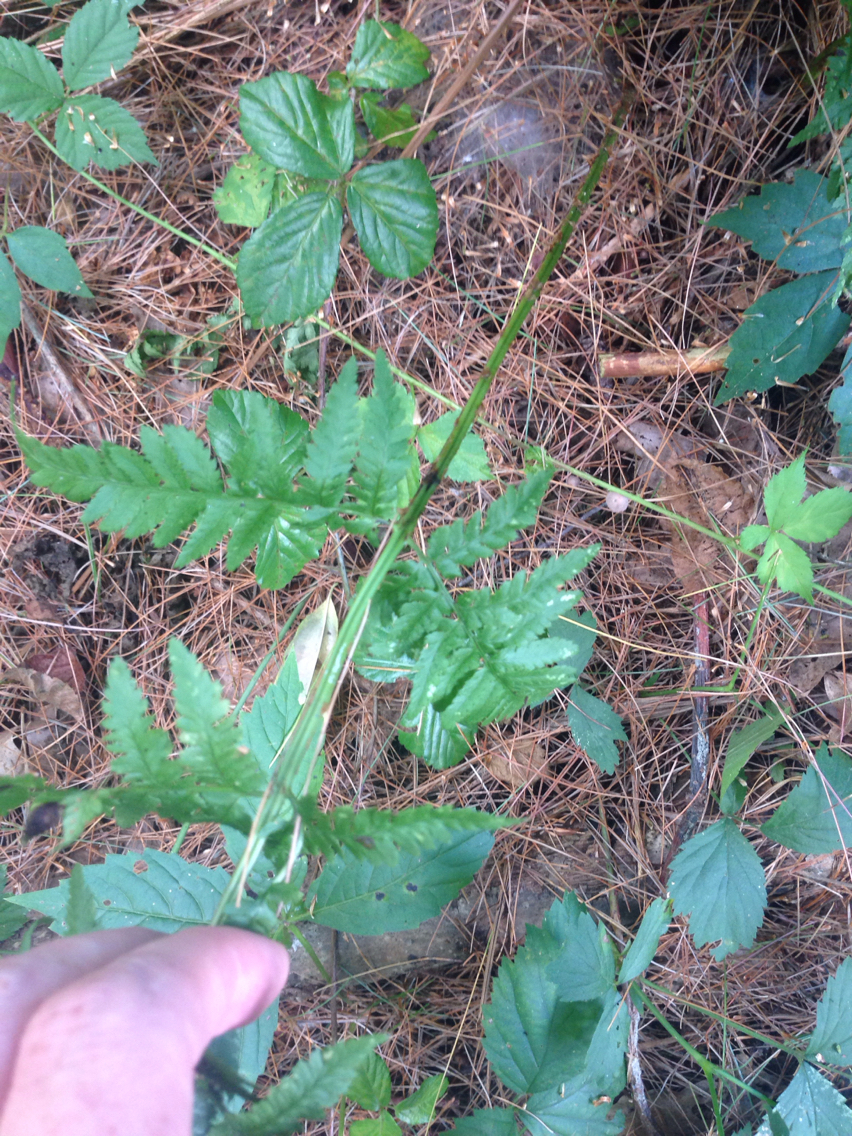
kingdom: Plantae
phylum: Tracheophyta
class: Polypodiopsida
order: Polypodiales
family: Dryopteridaceae
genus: Dryopteris
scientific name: Dryopteris carthusiana
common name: Narrow buckler-fern
